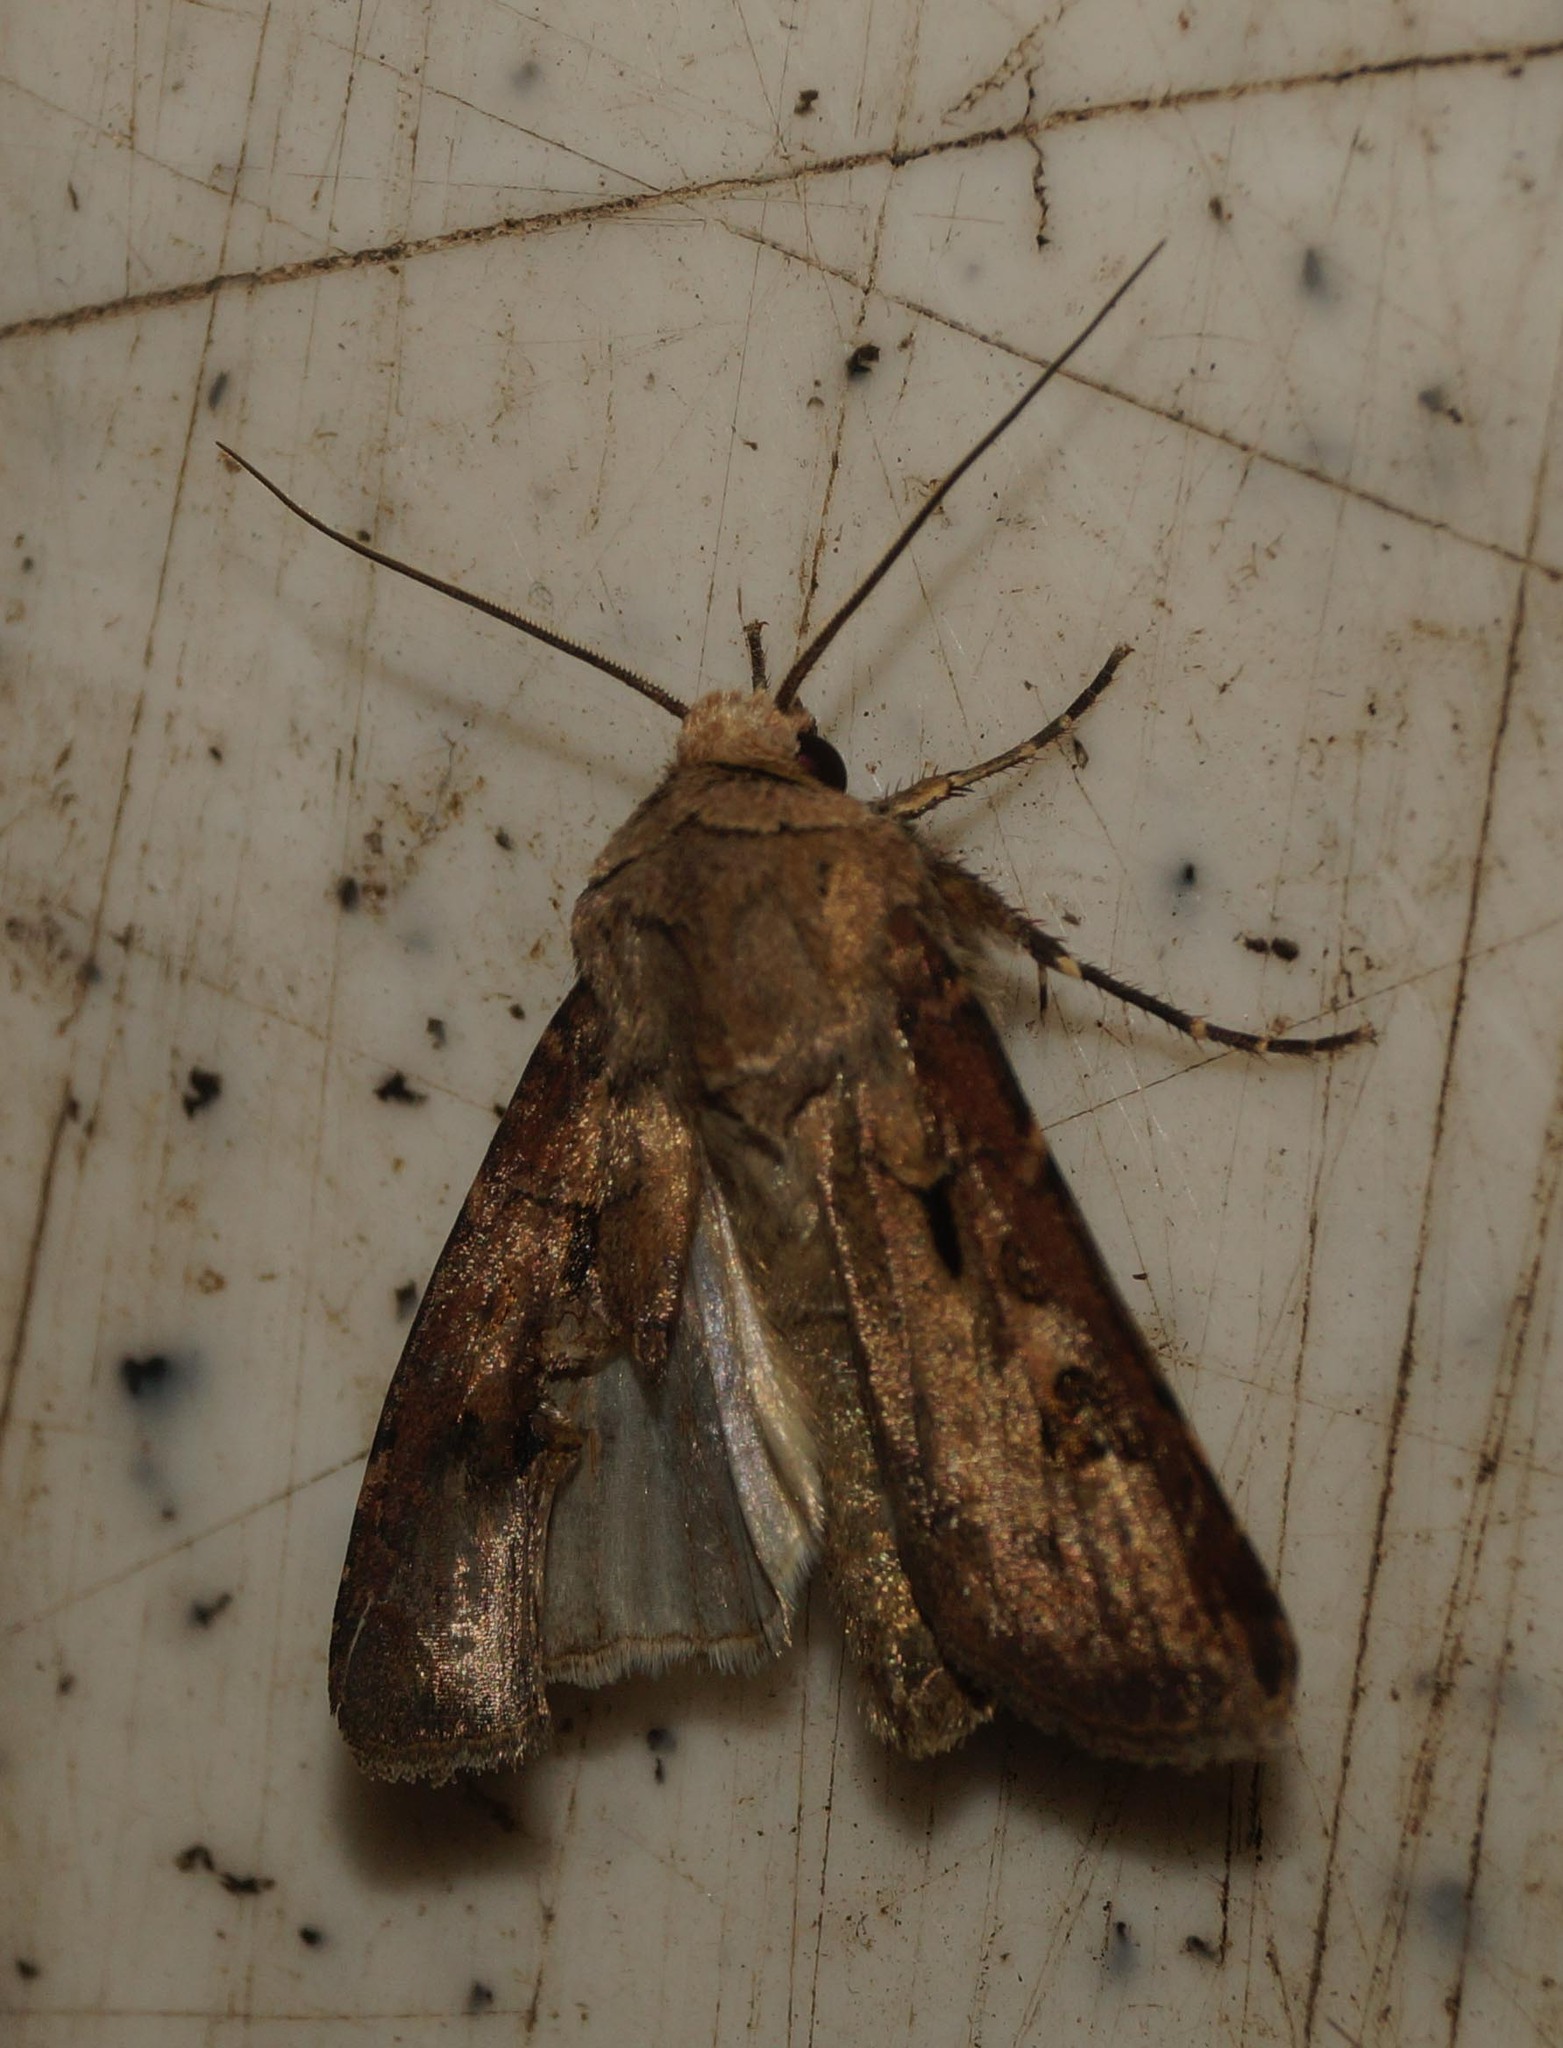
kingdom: Animalia
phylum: Arthropoda
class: Insecta
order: Lepidoptera
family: Noctuidae
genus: Agrotis
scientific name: Agrotis exclamationis
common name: Heart and dart
